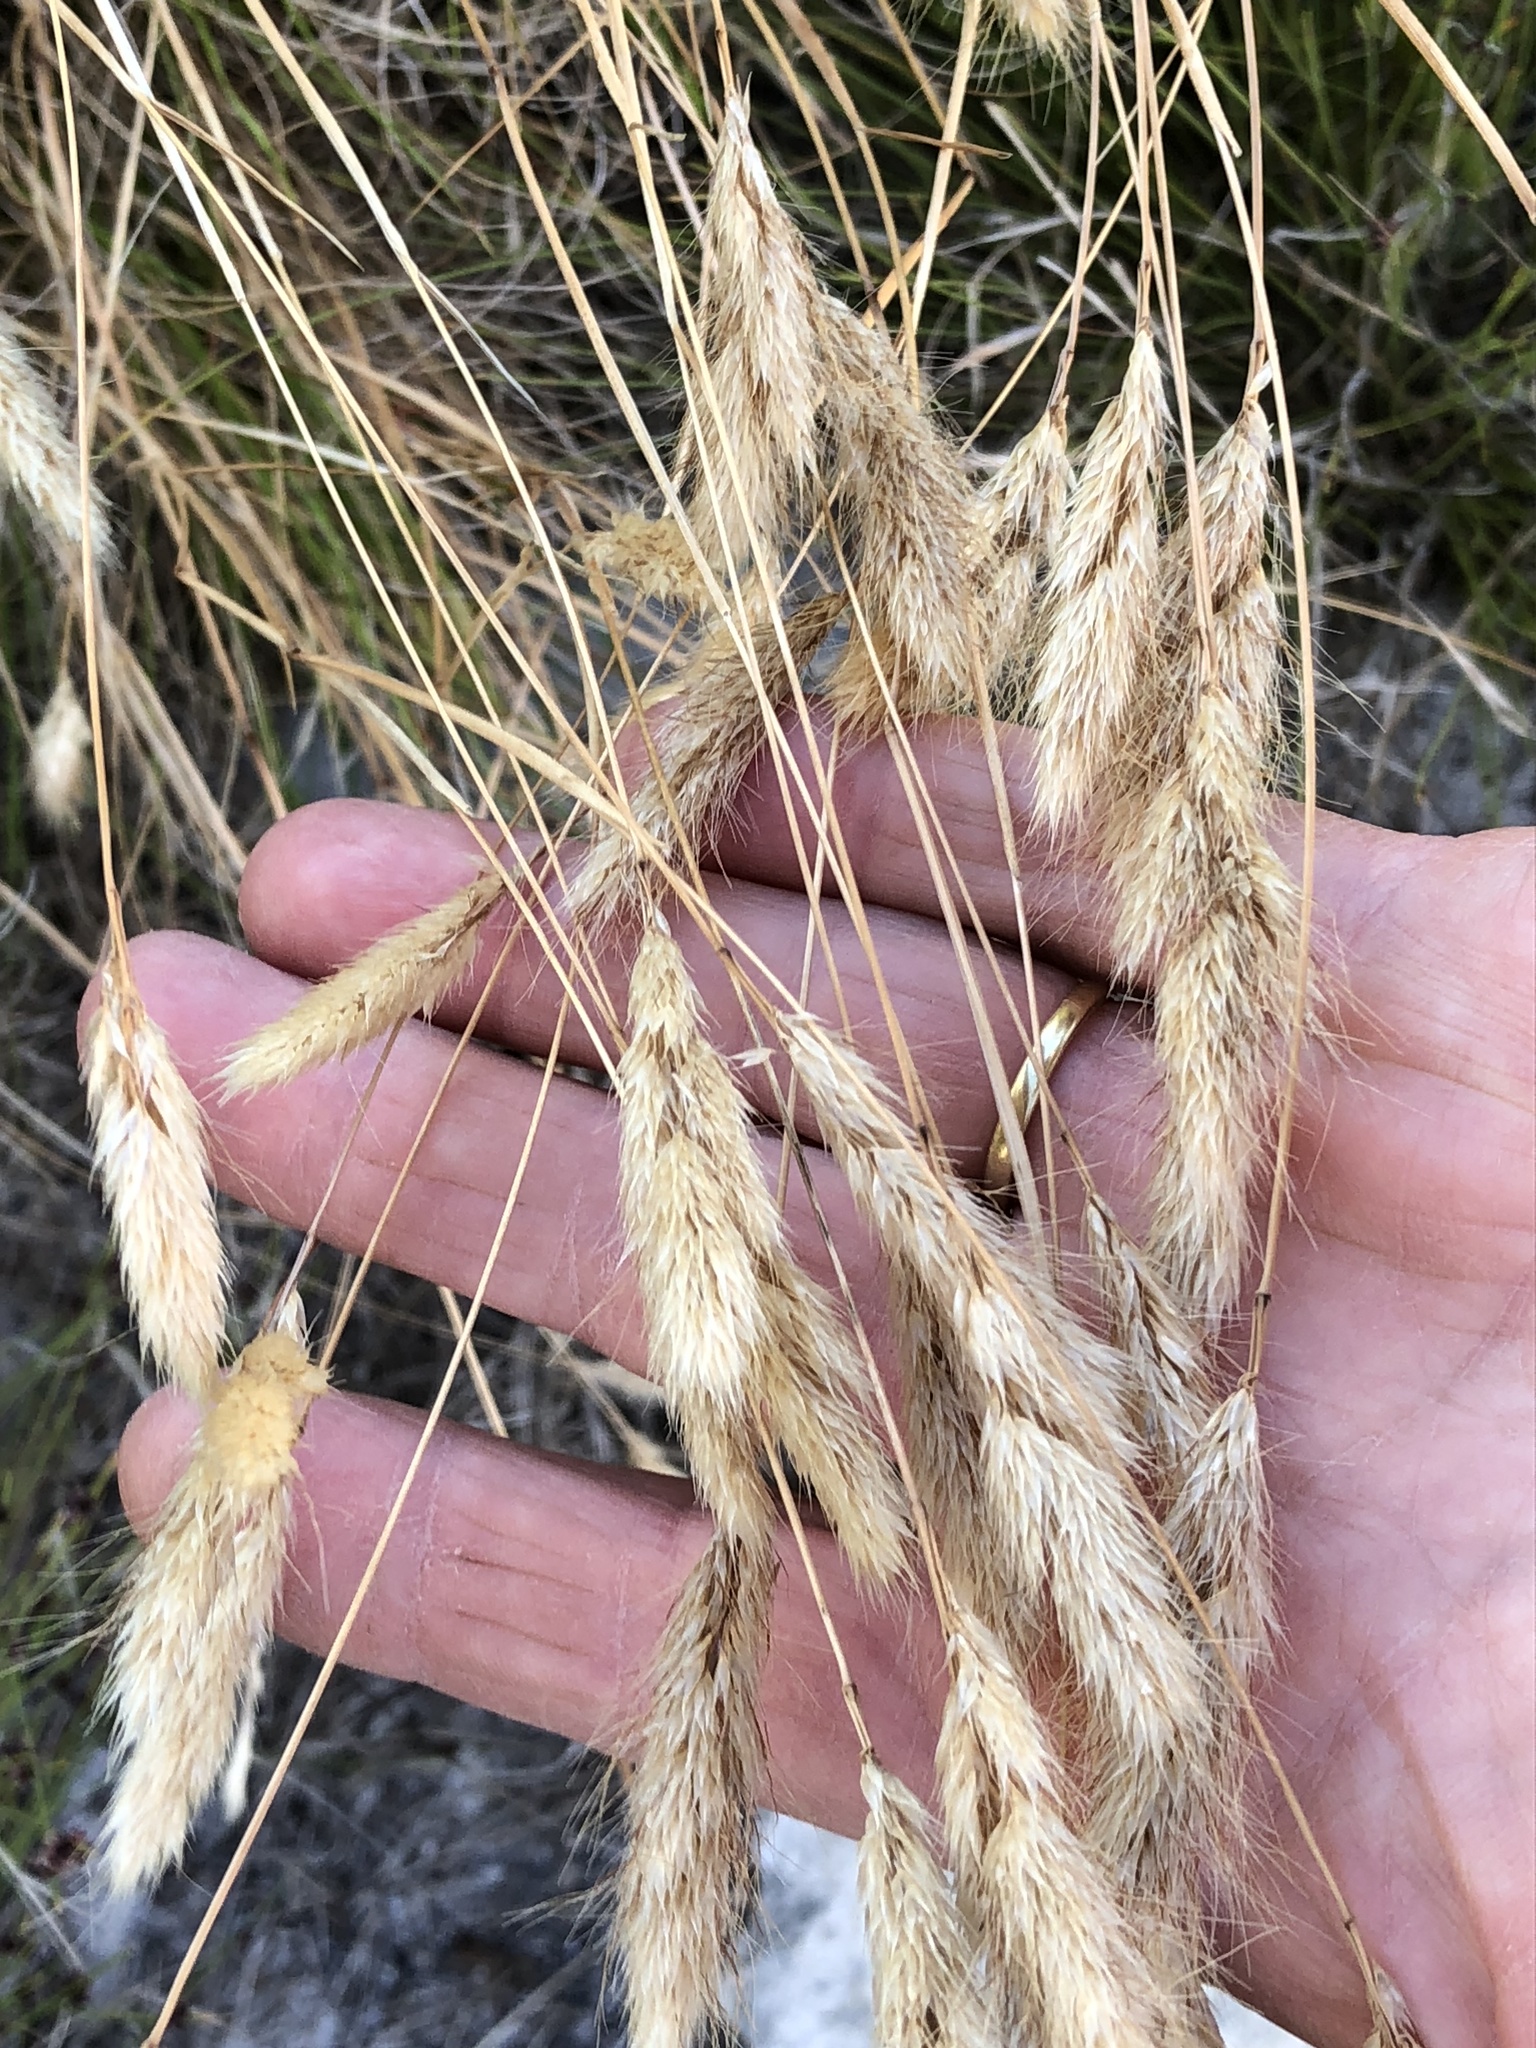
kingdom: Plantae
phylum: Tracheophyta
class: Liliopsida
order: Poales
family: Poaceae
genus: Polypogon
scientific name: Polypogon monspeliensis
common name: Annual rabbitsfoot grass
